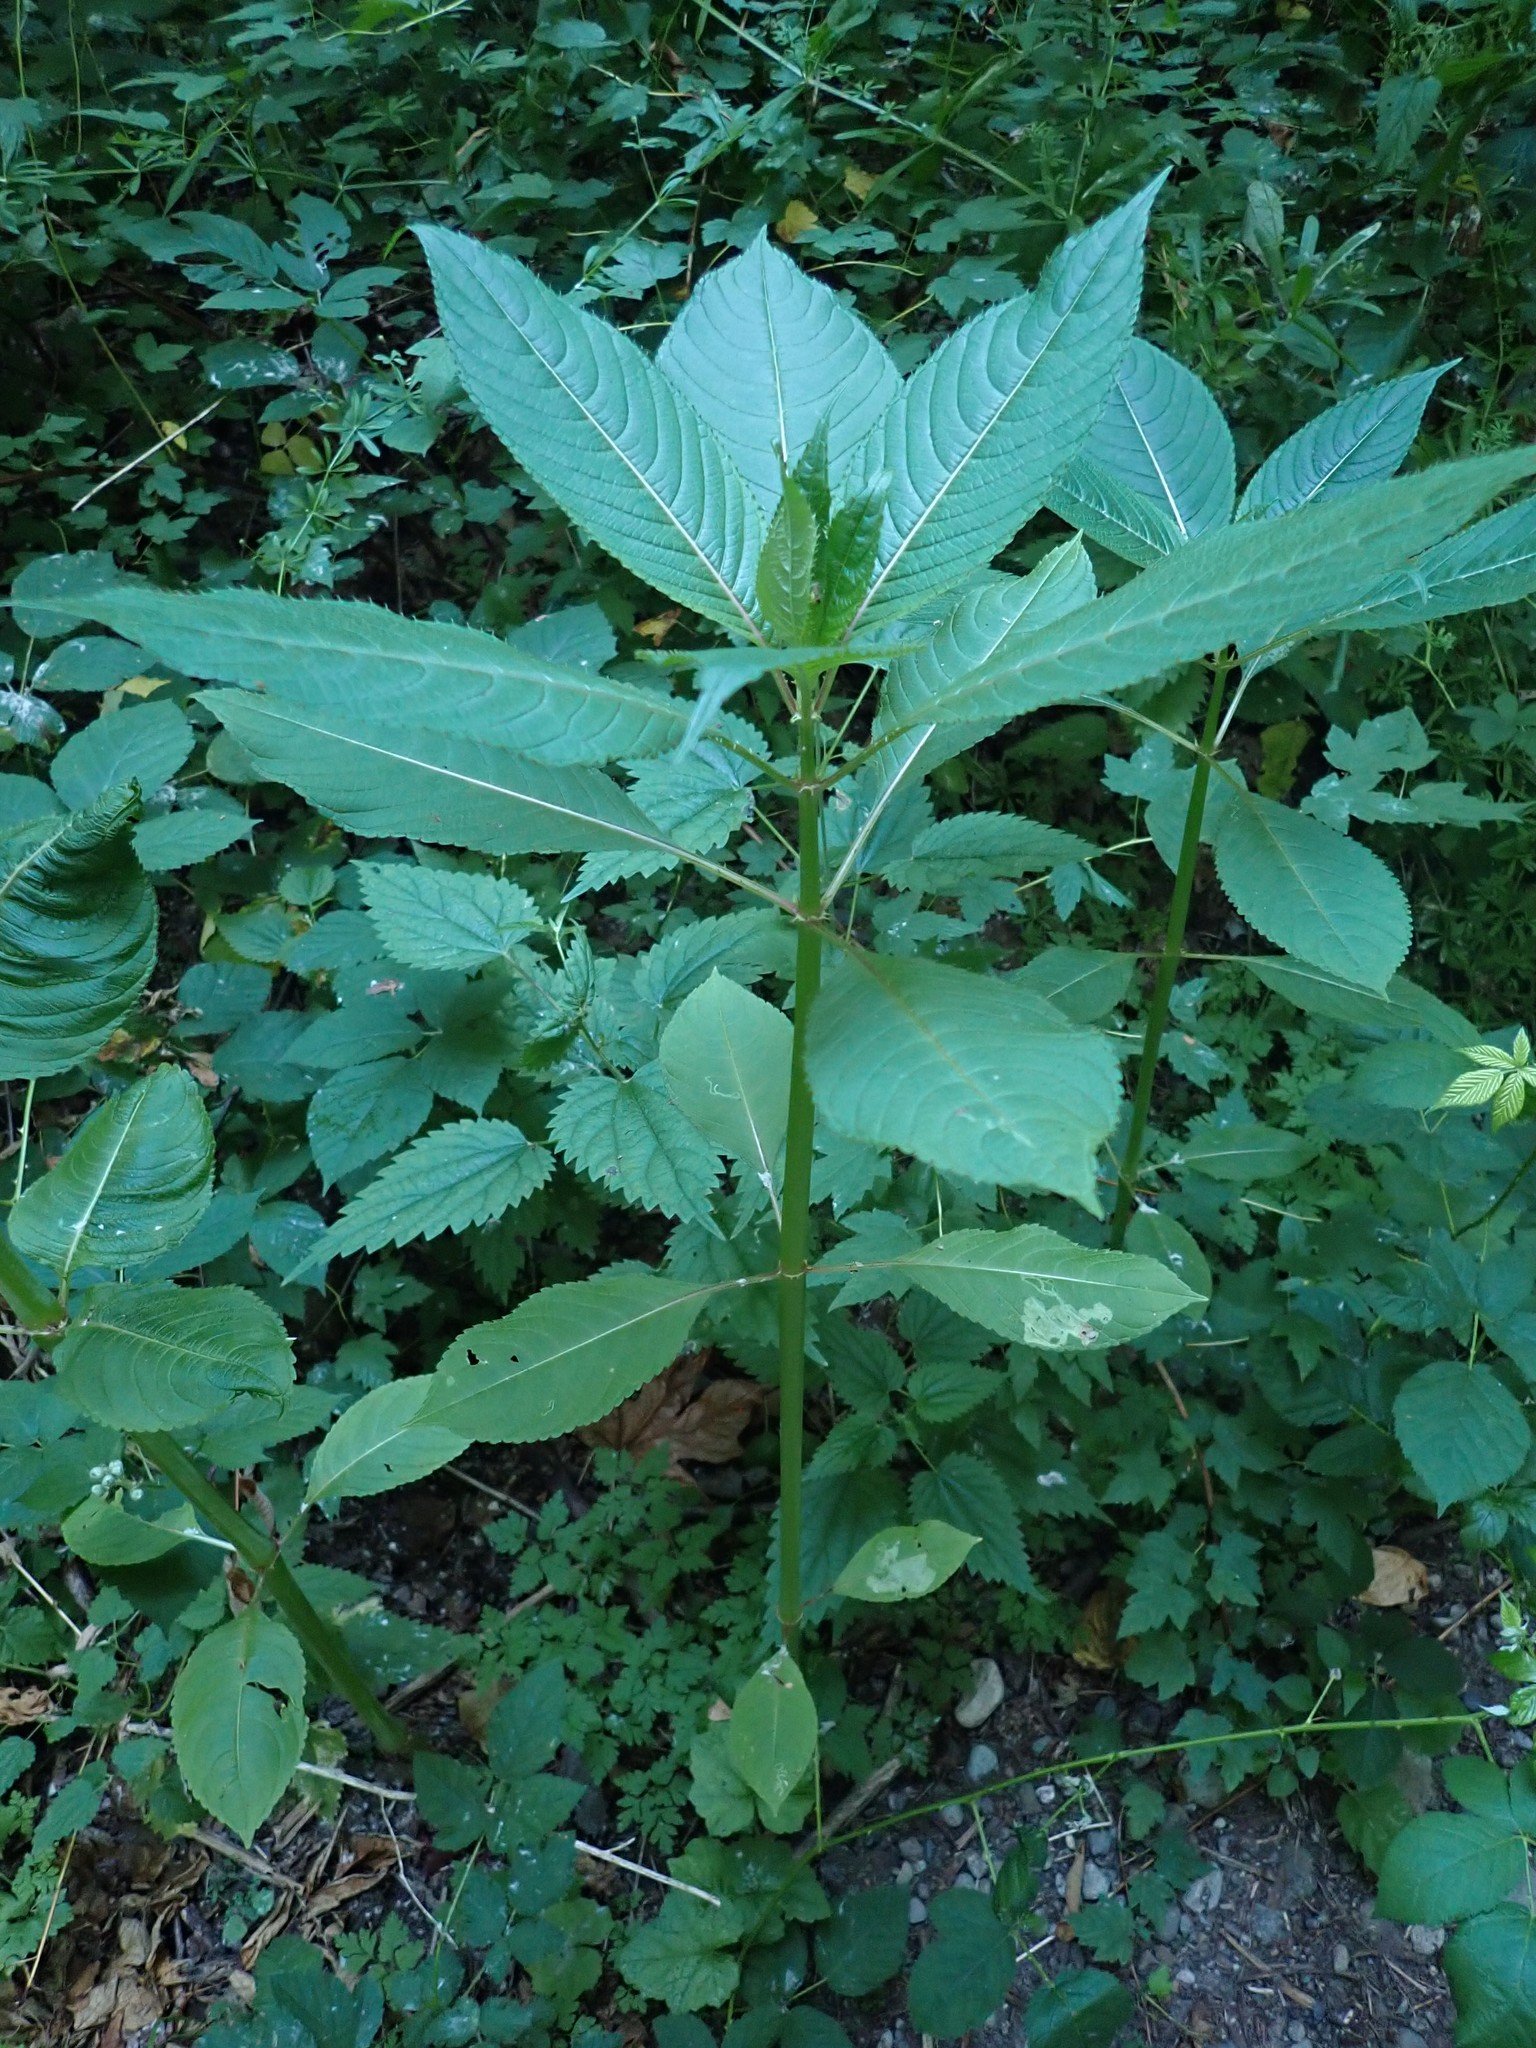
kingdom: Plantae
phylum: Tracheophyta
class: Magnoliopsida
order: Ericales
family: Balsaminaceae
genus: Impatiens
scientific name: Impatiens glandulifera
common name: Himalayan balsam
